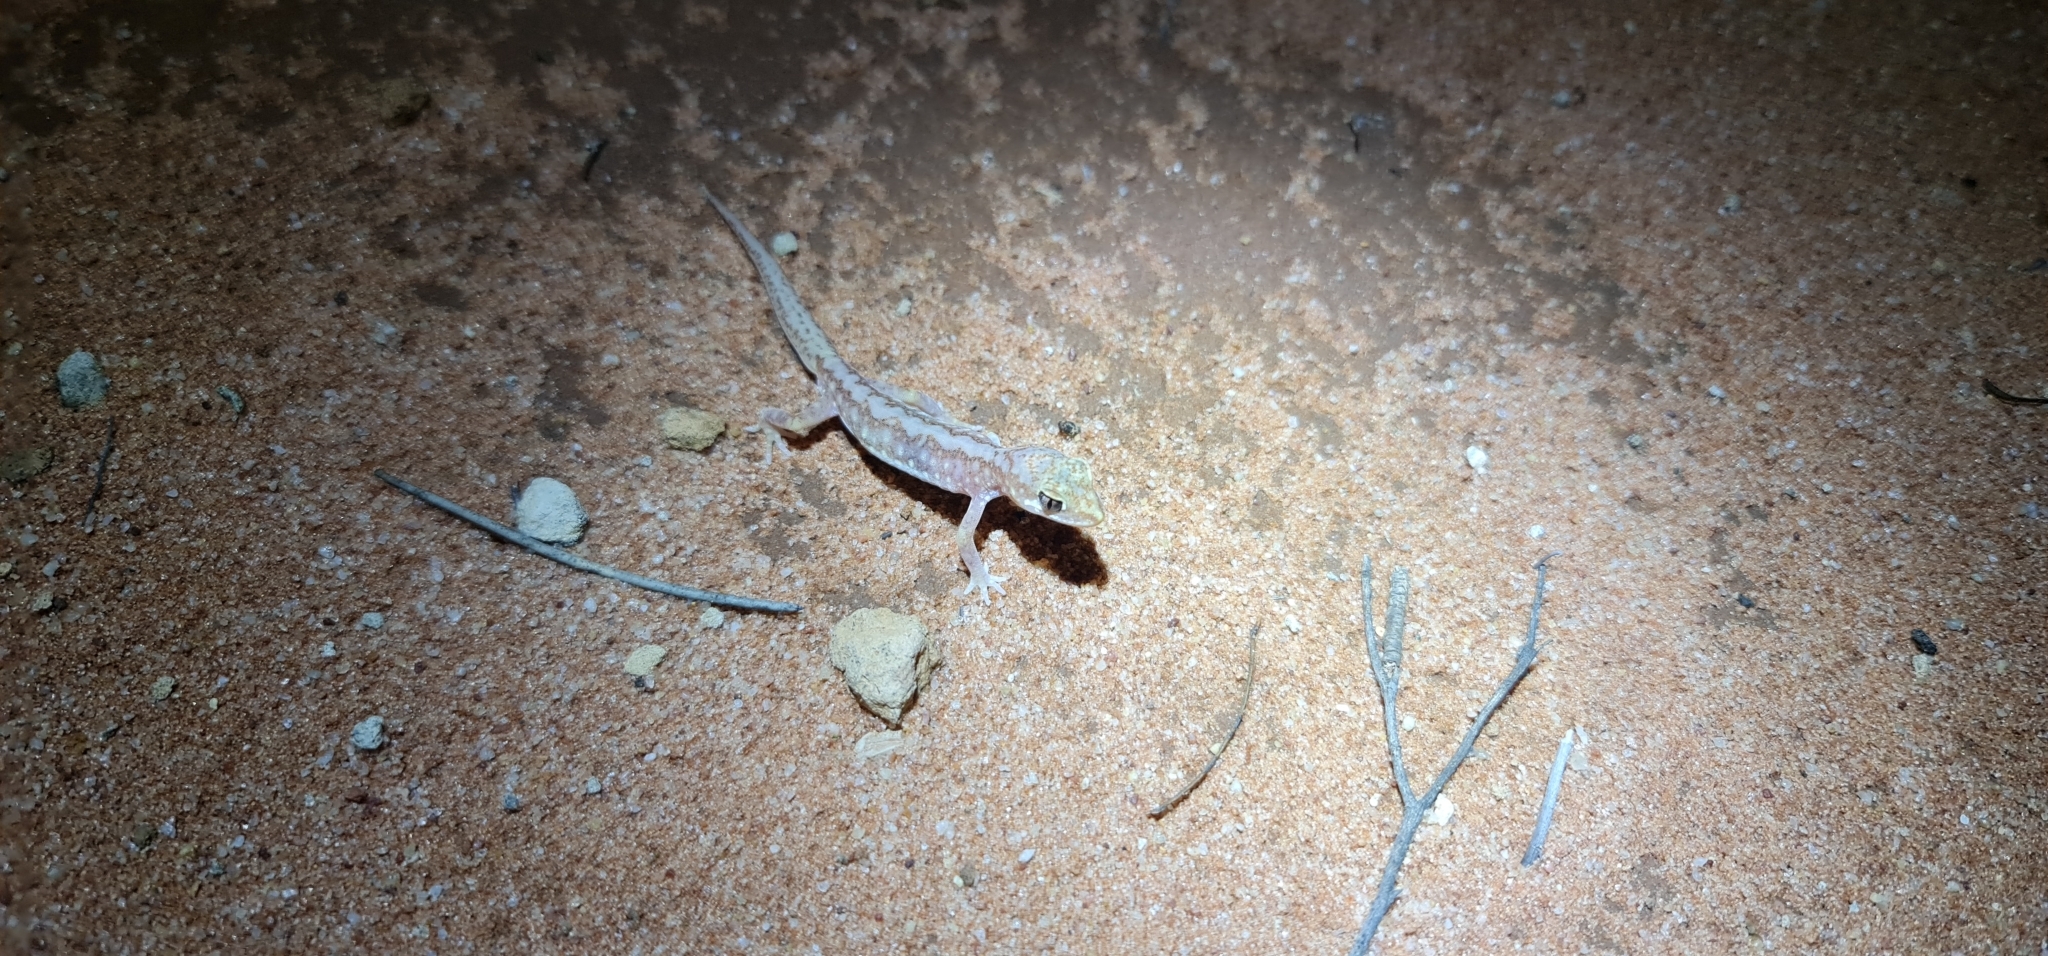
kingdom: Animalia
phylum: Chordata
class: Squamata
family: Diplodactylidae
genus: Lucasium
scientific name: Lucasium damaeum
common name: Beaded gecko
